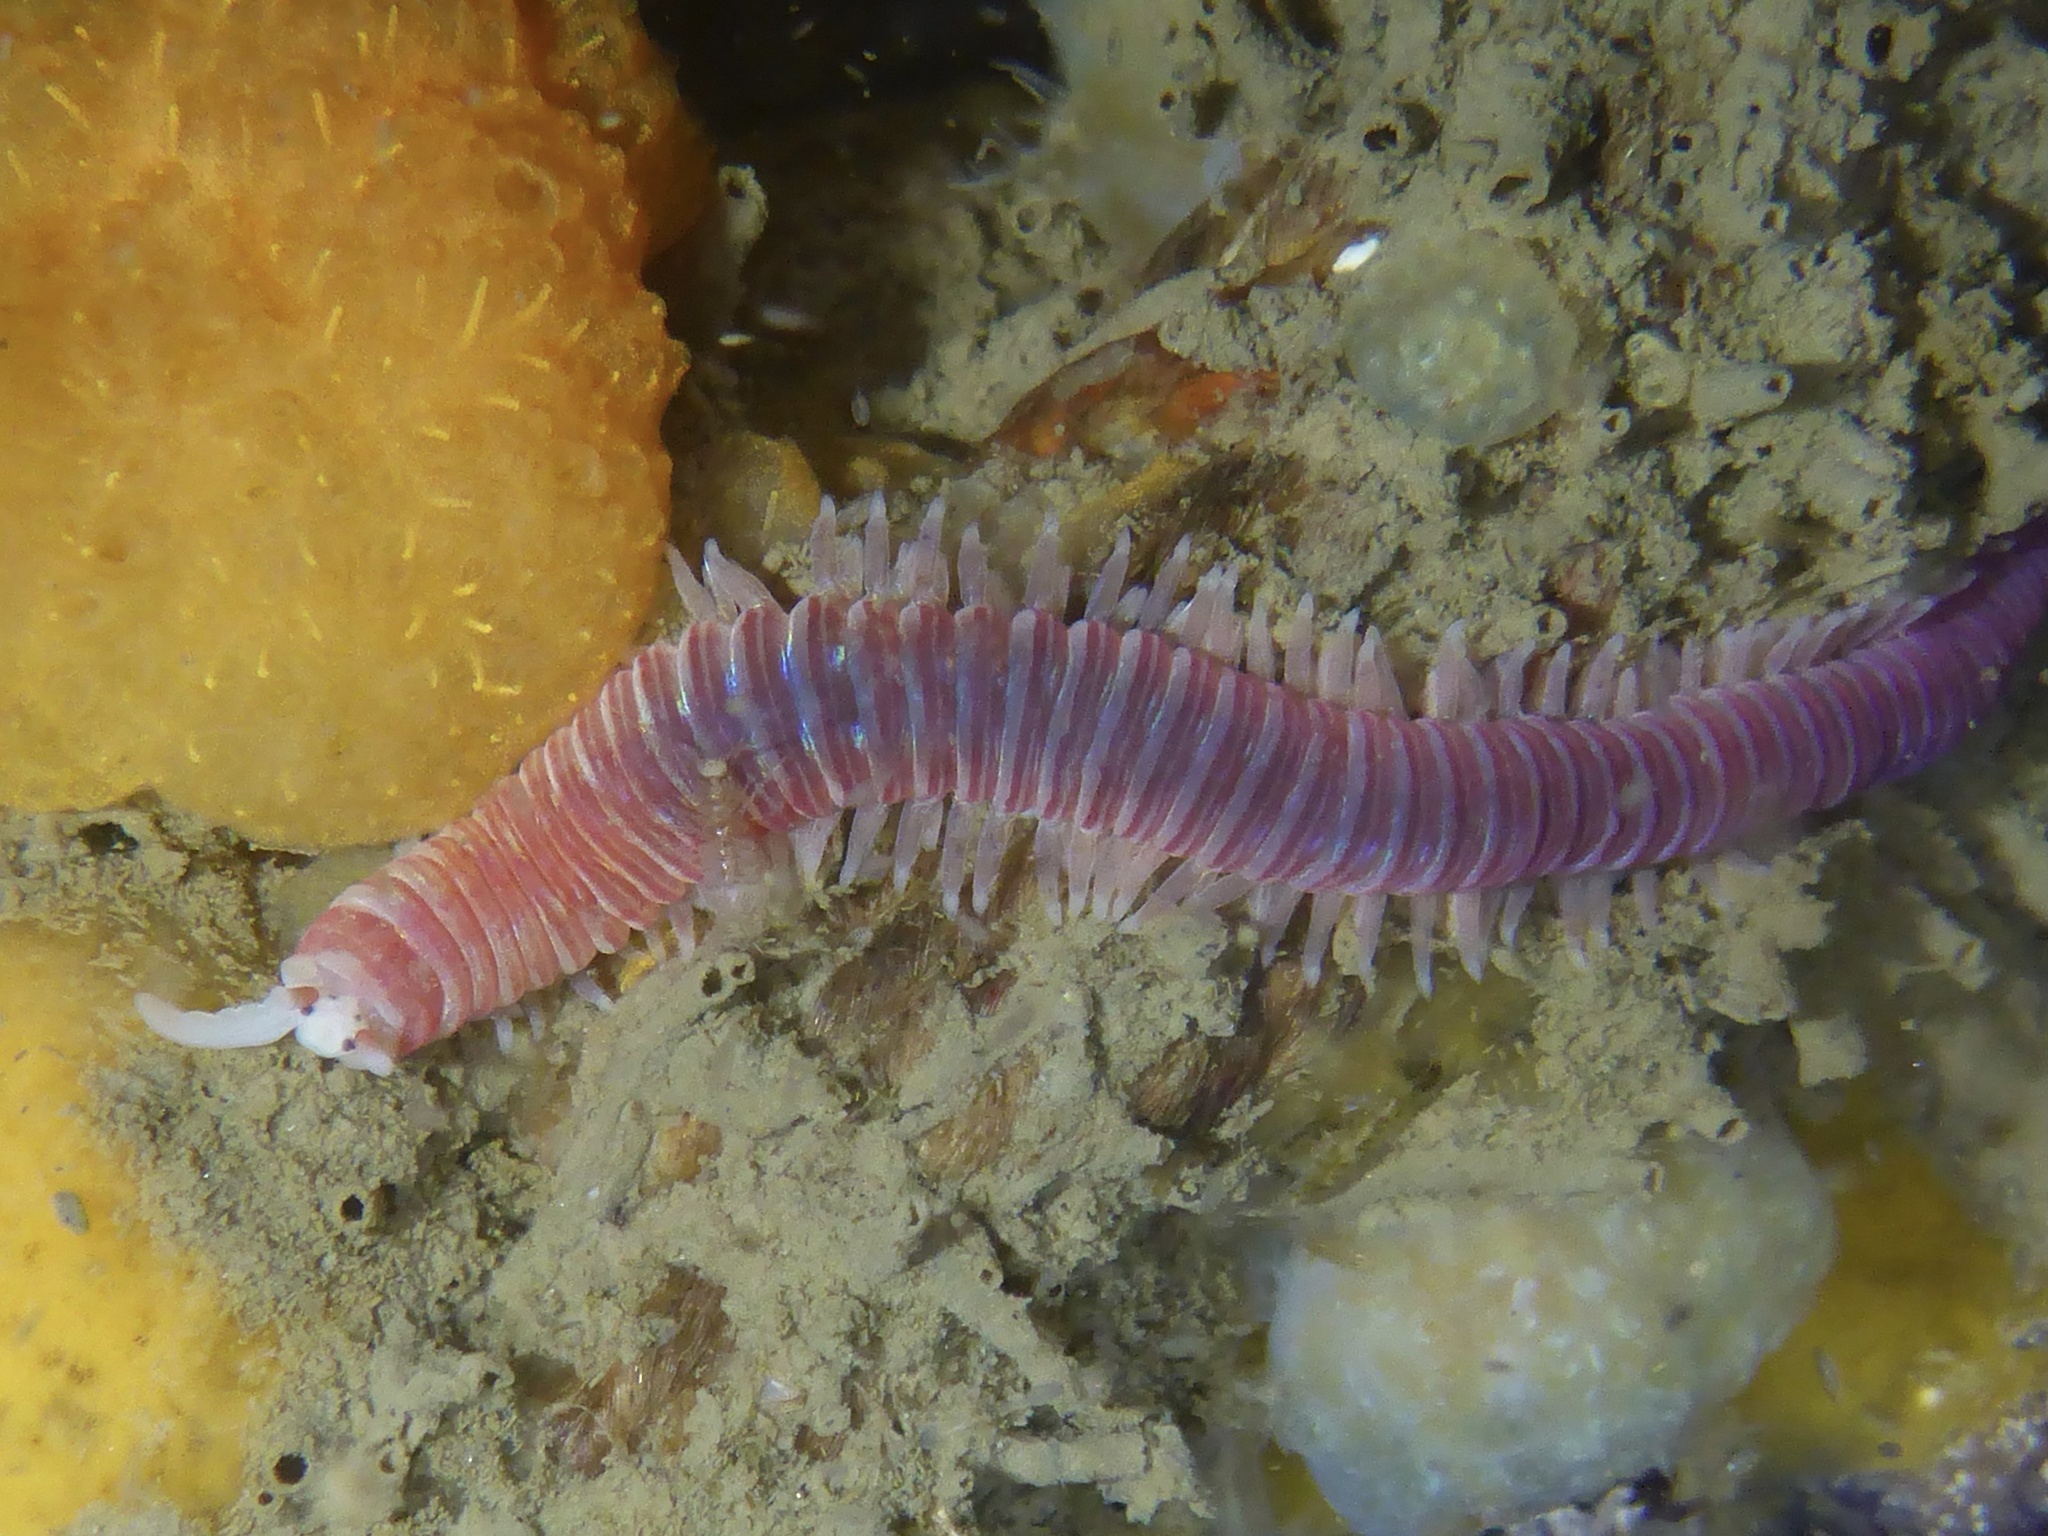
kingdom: Animalia
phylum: Annelida
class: Polychaeta
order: Eunicida
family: Dorvilleidae
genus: Dorvillea
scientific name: Dorvillea moniloceras
